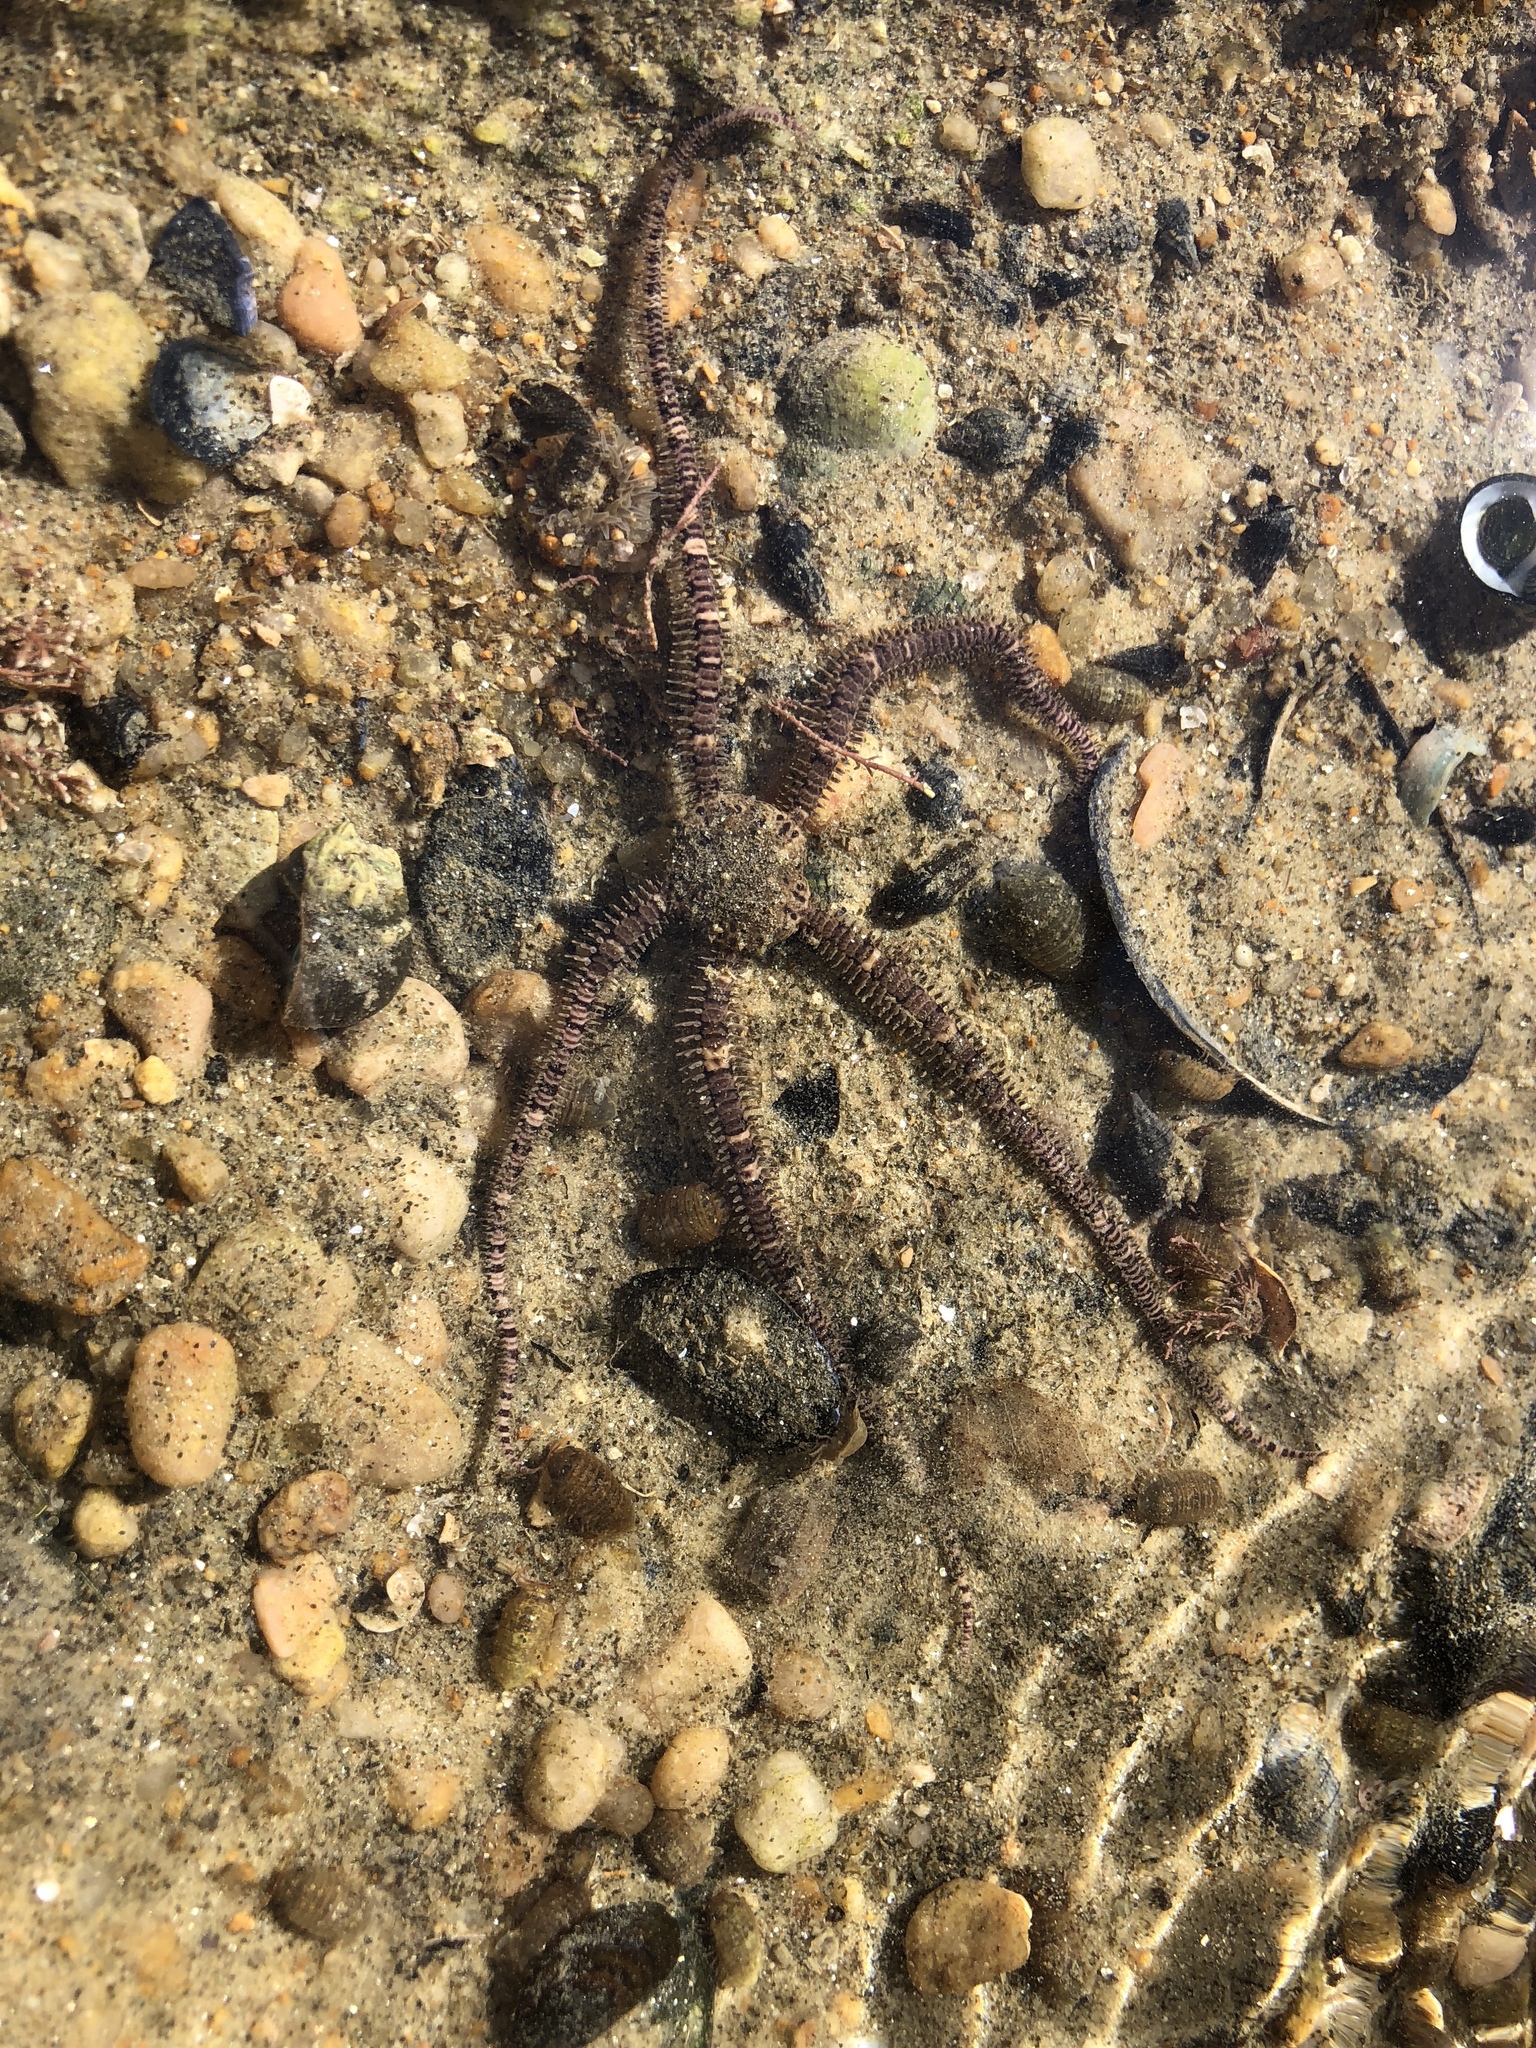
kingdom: Animalia
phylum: Echinodermata
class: Ophiuroidea
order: Amphilepidida
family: Ophionereididae
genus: Ophionereis
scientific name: Ophionereis fasciata
